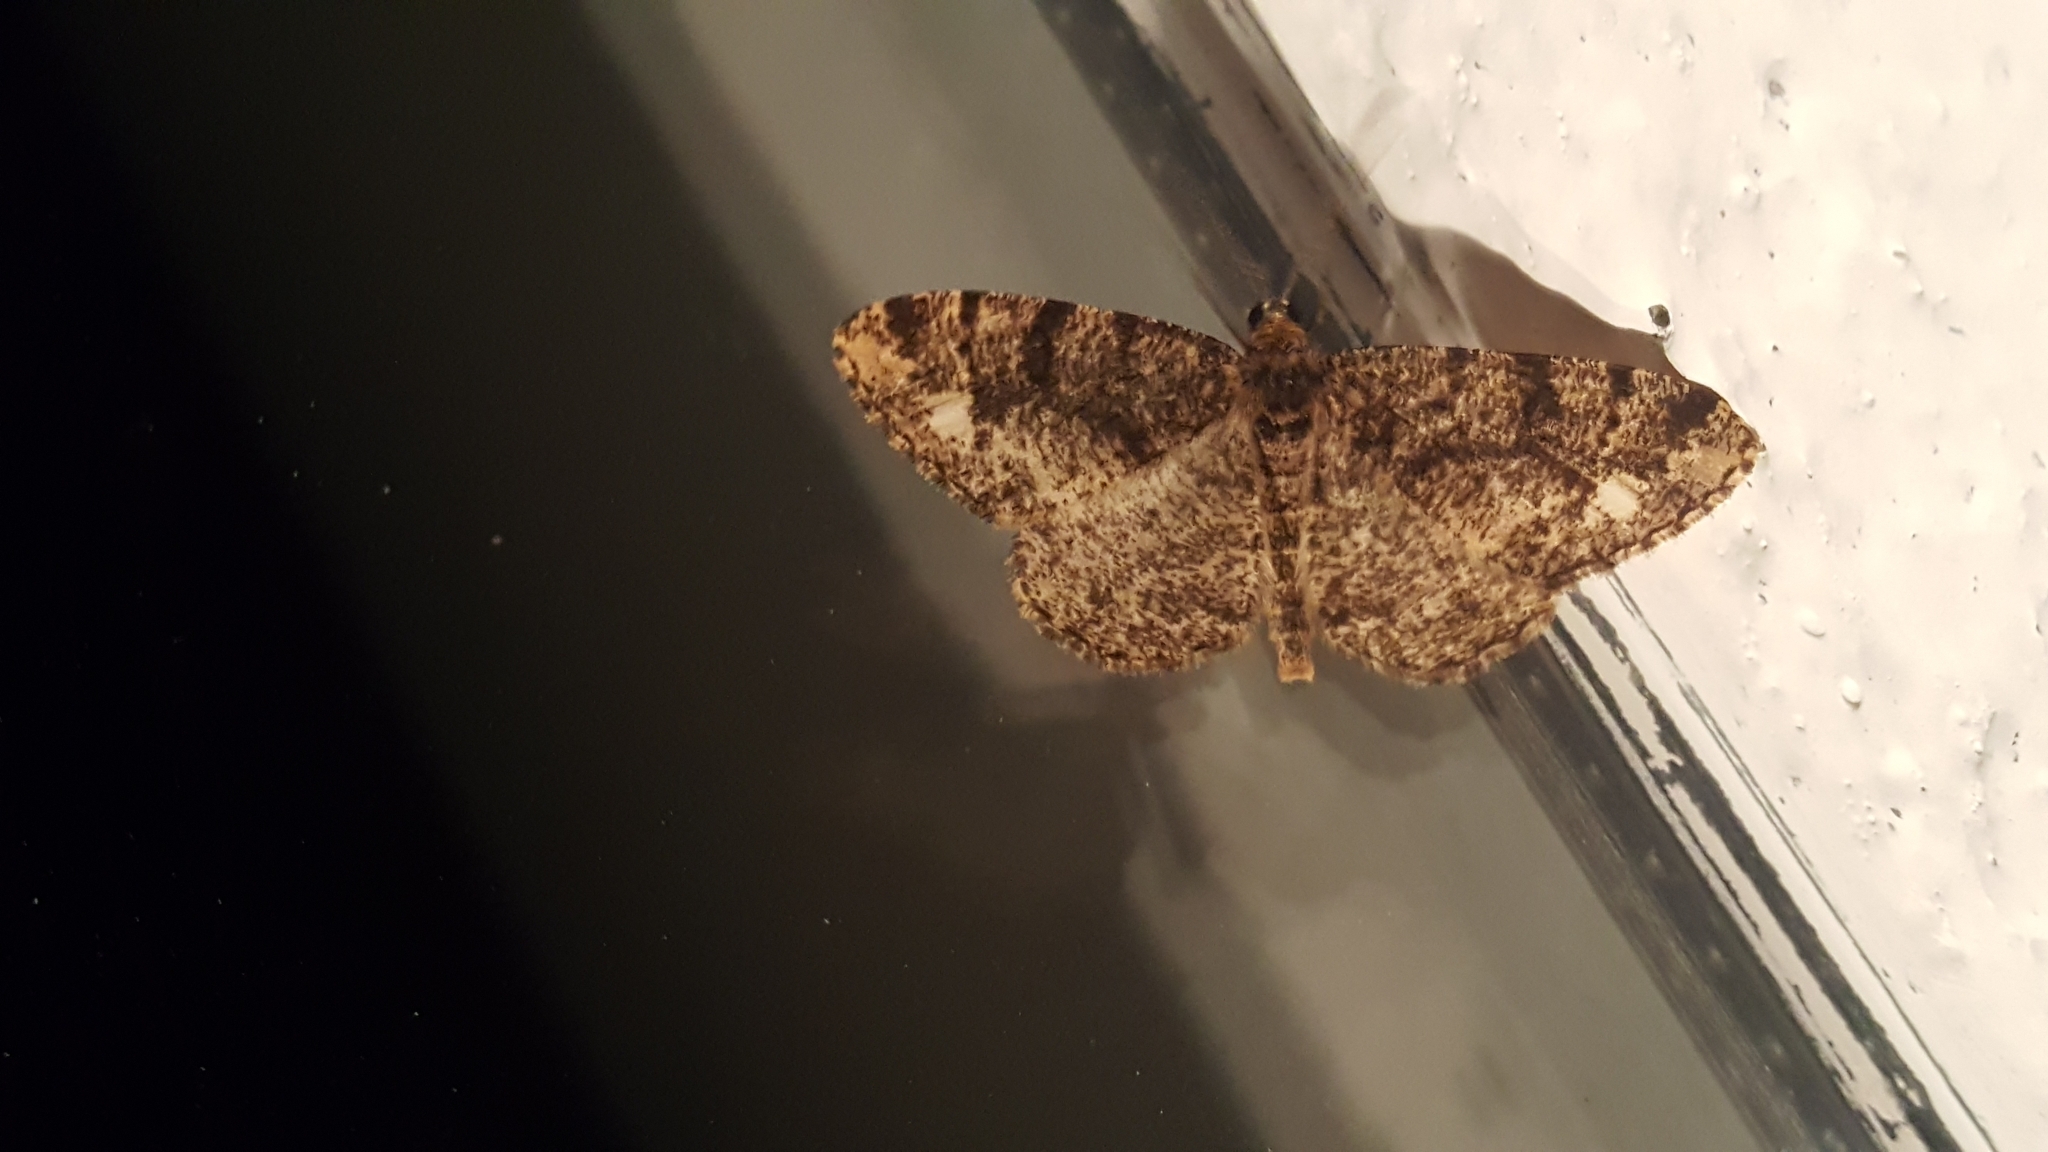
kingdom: Animalia
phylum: Arthropoda
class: Insecta
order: Lepidoptera
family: Geometridae
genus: Parectropis
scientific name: Parectropis similaria
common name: Brindled white-spot
